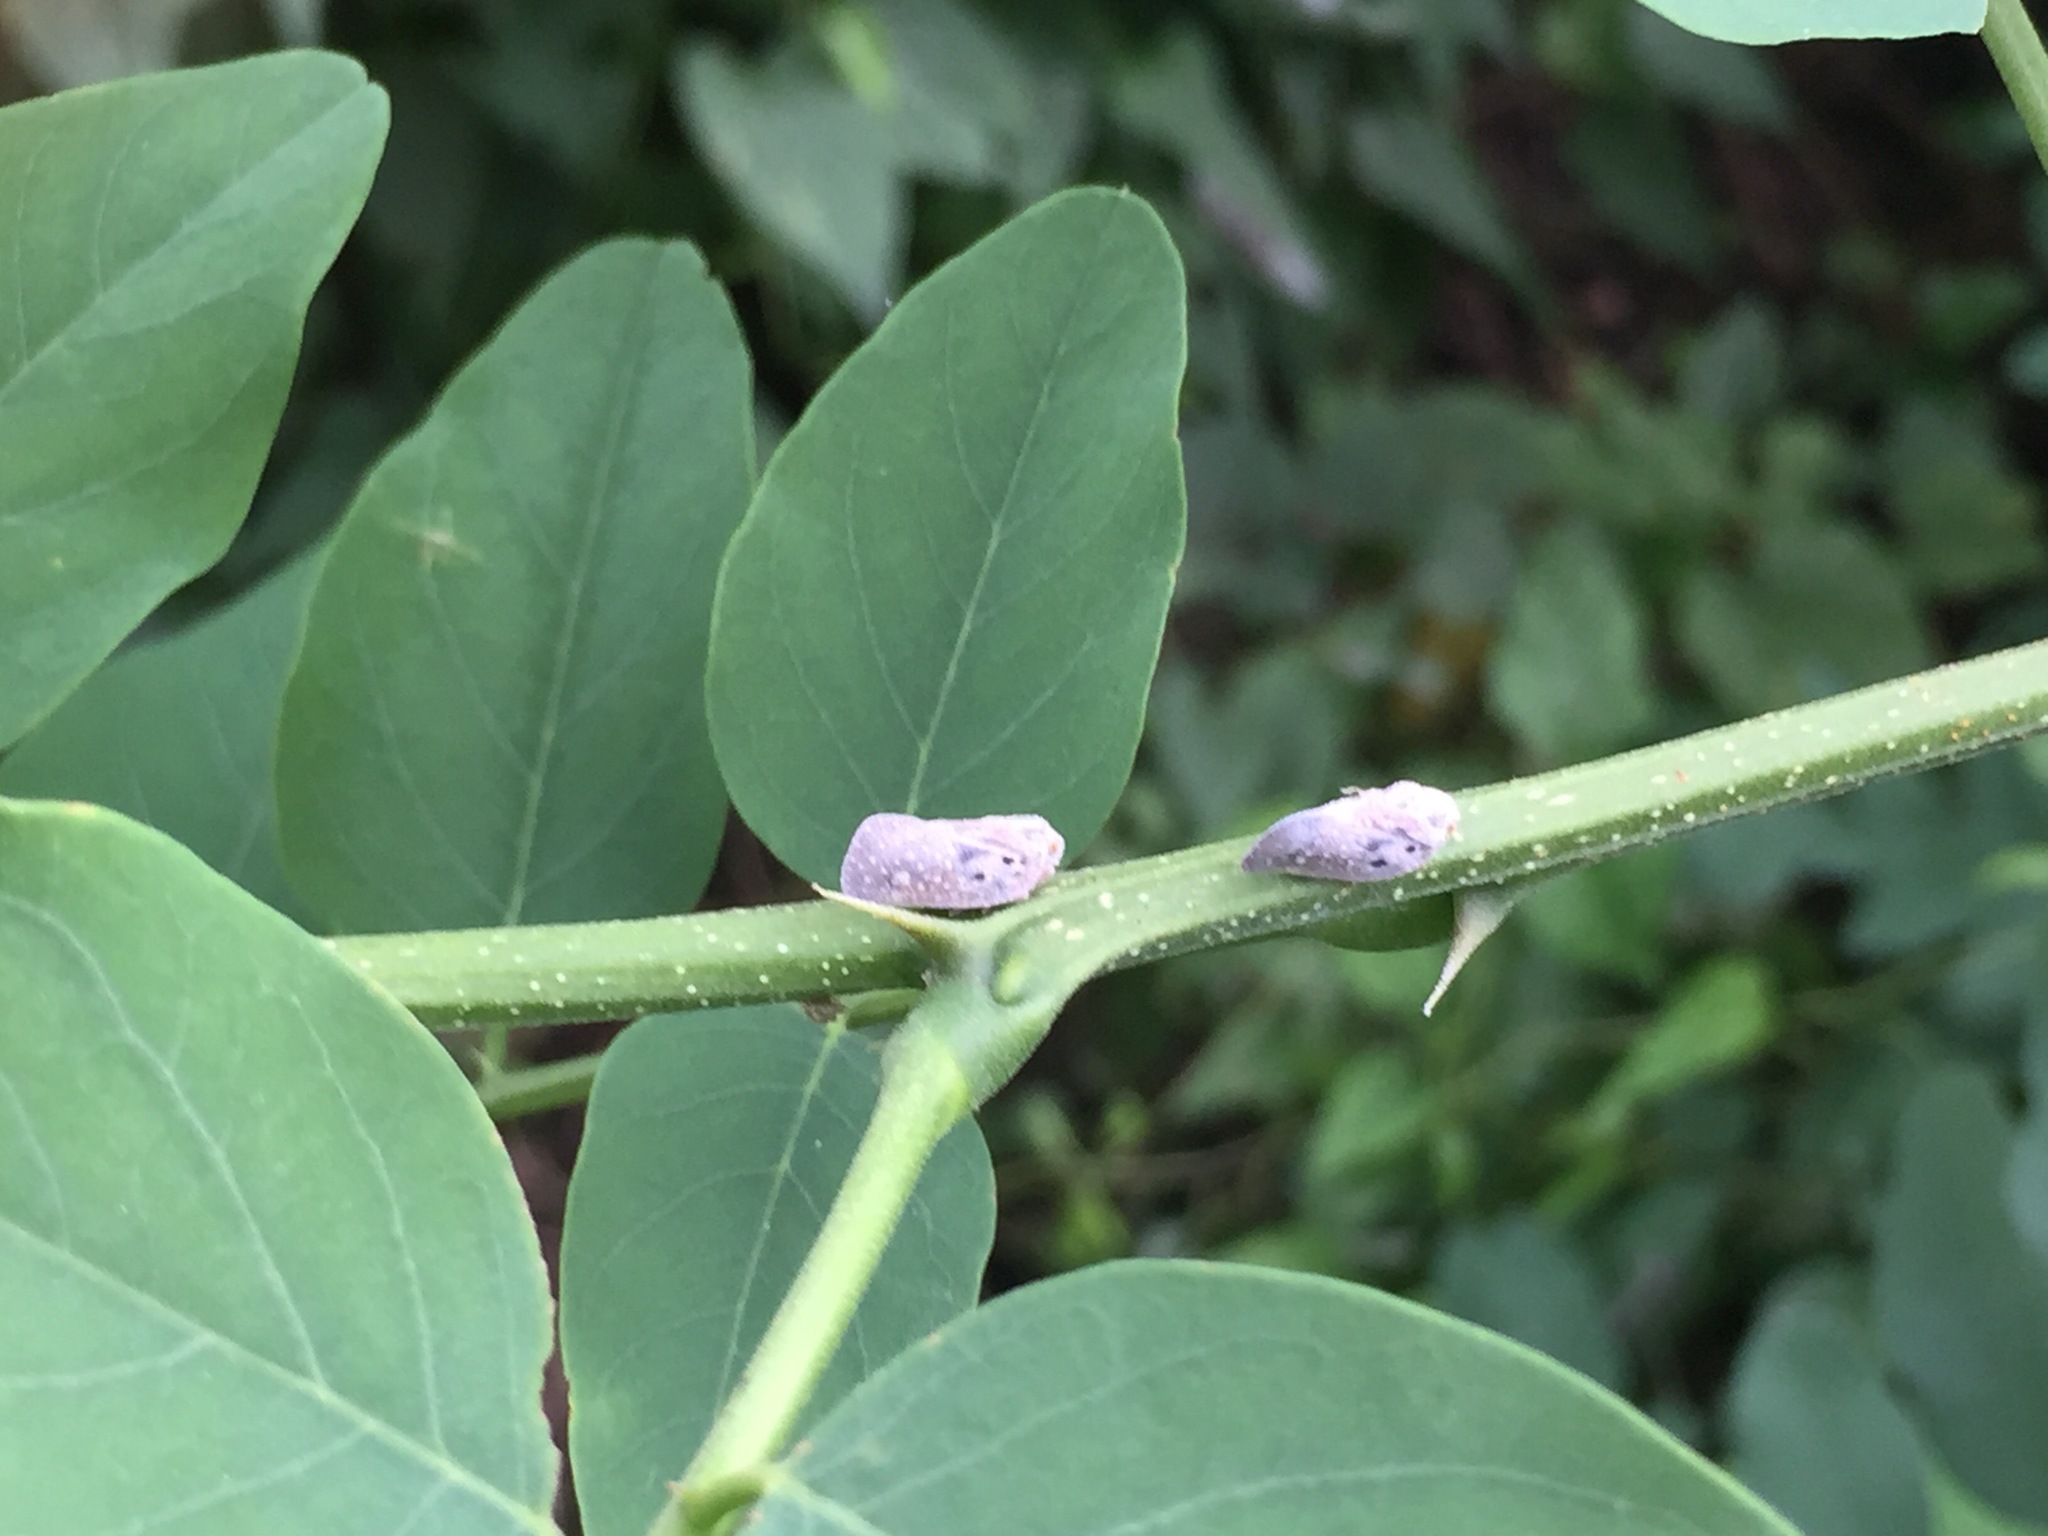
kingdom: Animalia
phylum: Arthropoda
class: Insecta
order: Hemiptera
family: Flatidae
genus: Metcalfa
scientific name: Metcalfa pruinosa
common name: Citrus flatid planthopper
